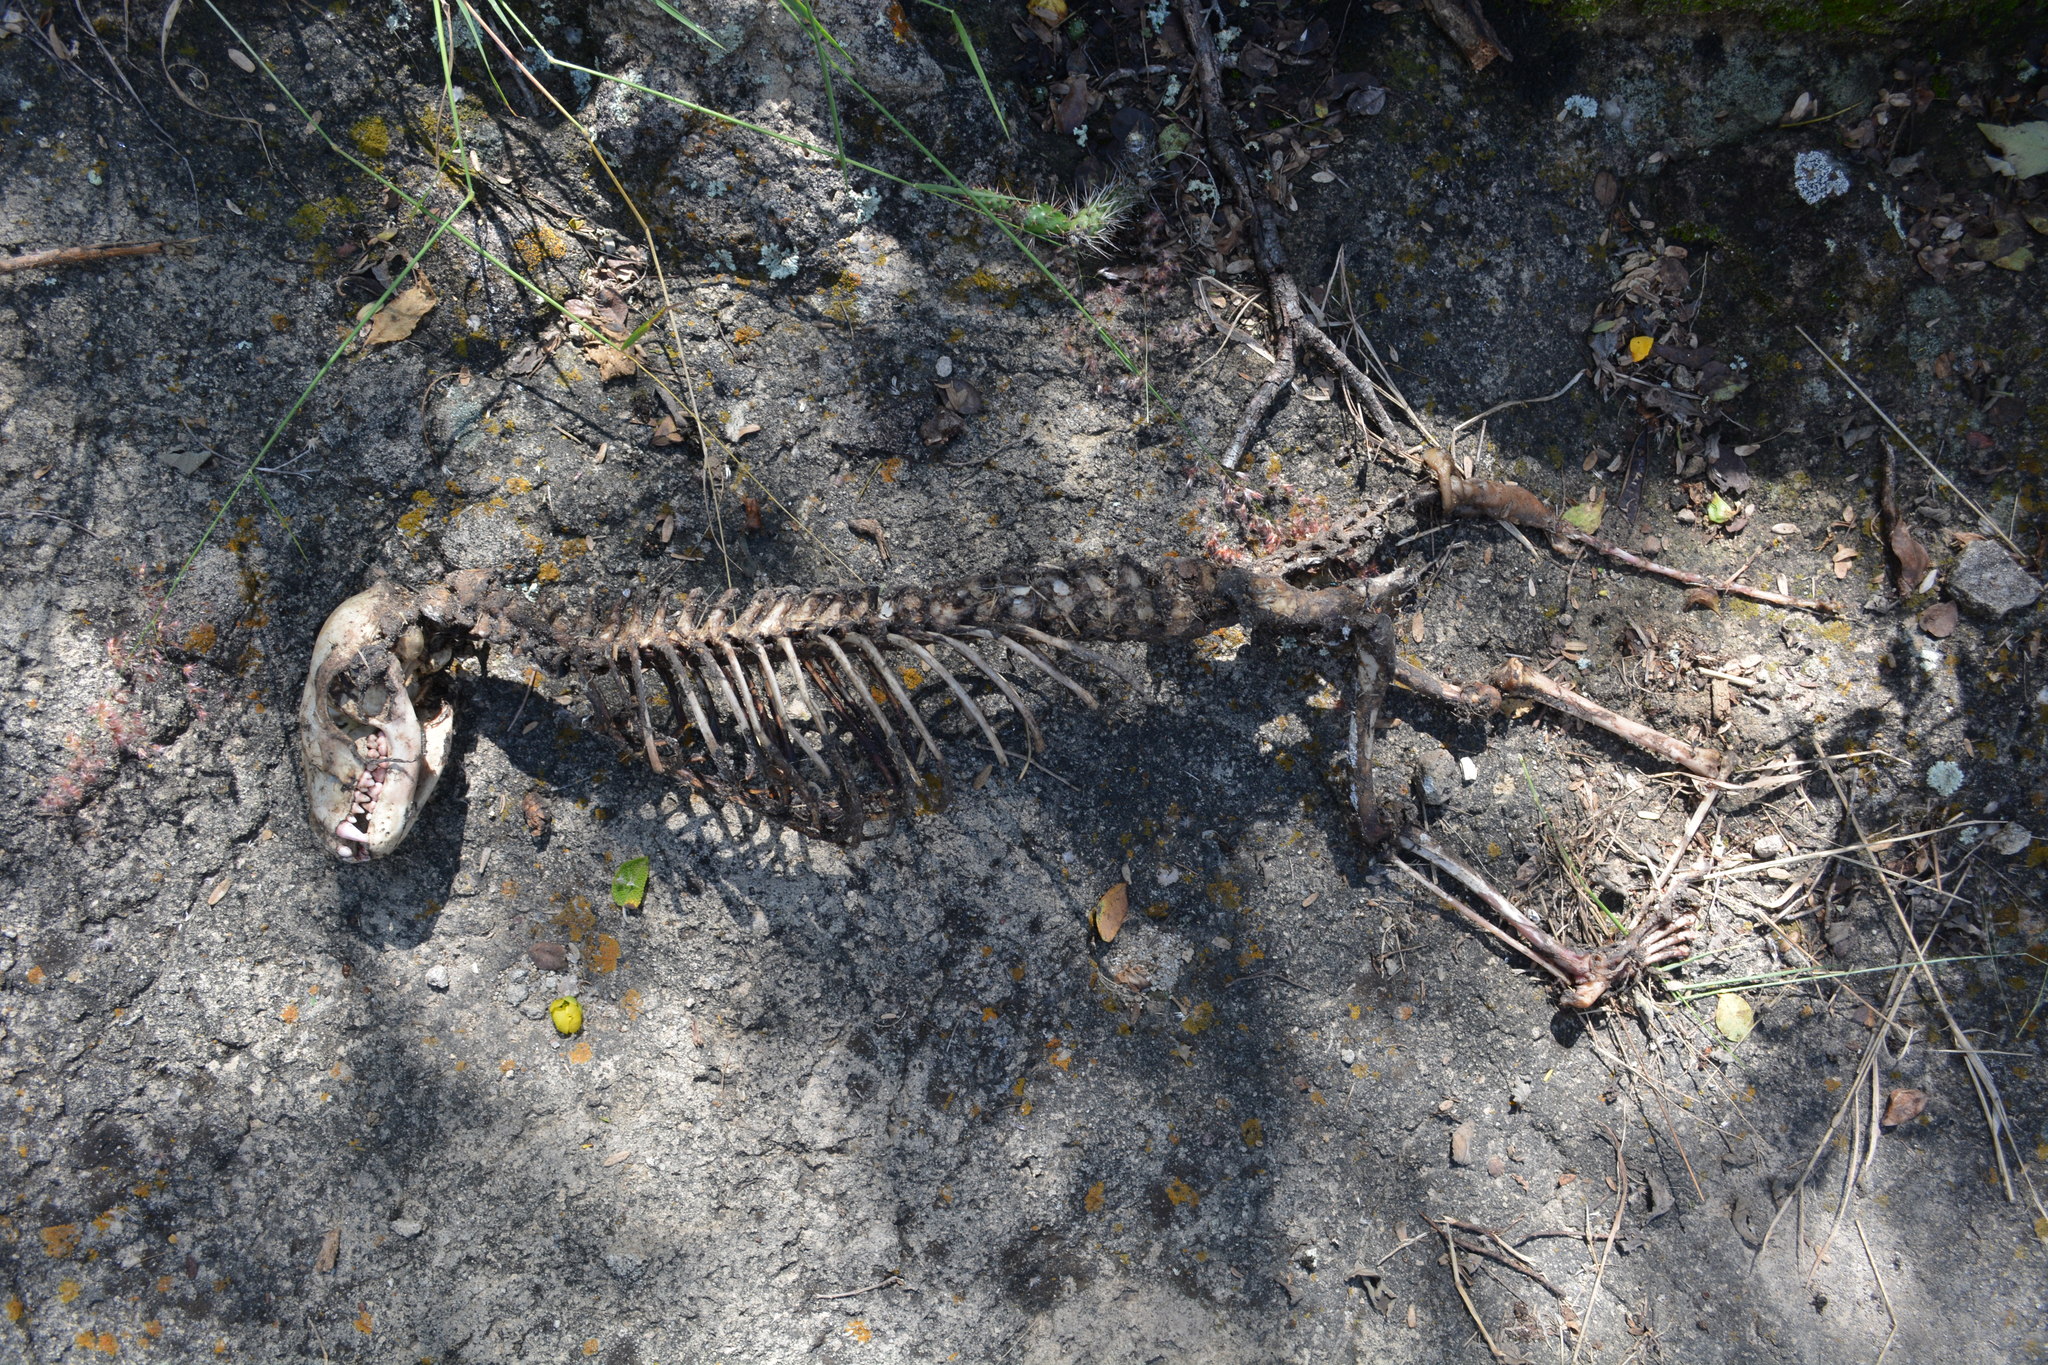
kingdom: Animalia
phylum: Chordata
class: Mammalia
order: Carnivora
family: Procyonidae
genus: Procyon
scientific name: Procyon lotor
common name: Raccoon
